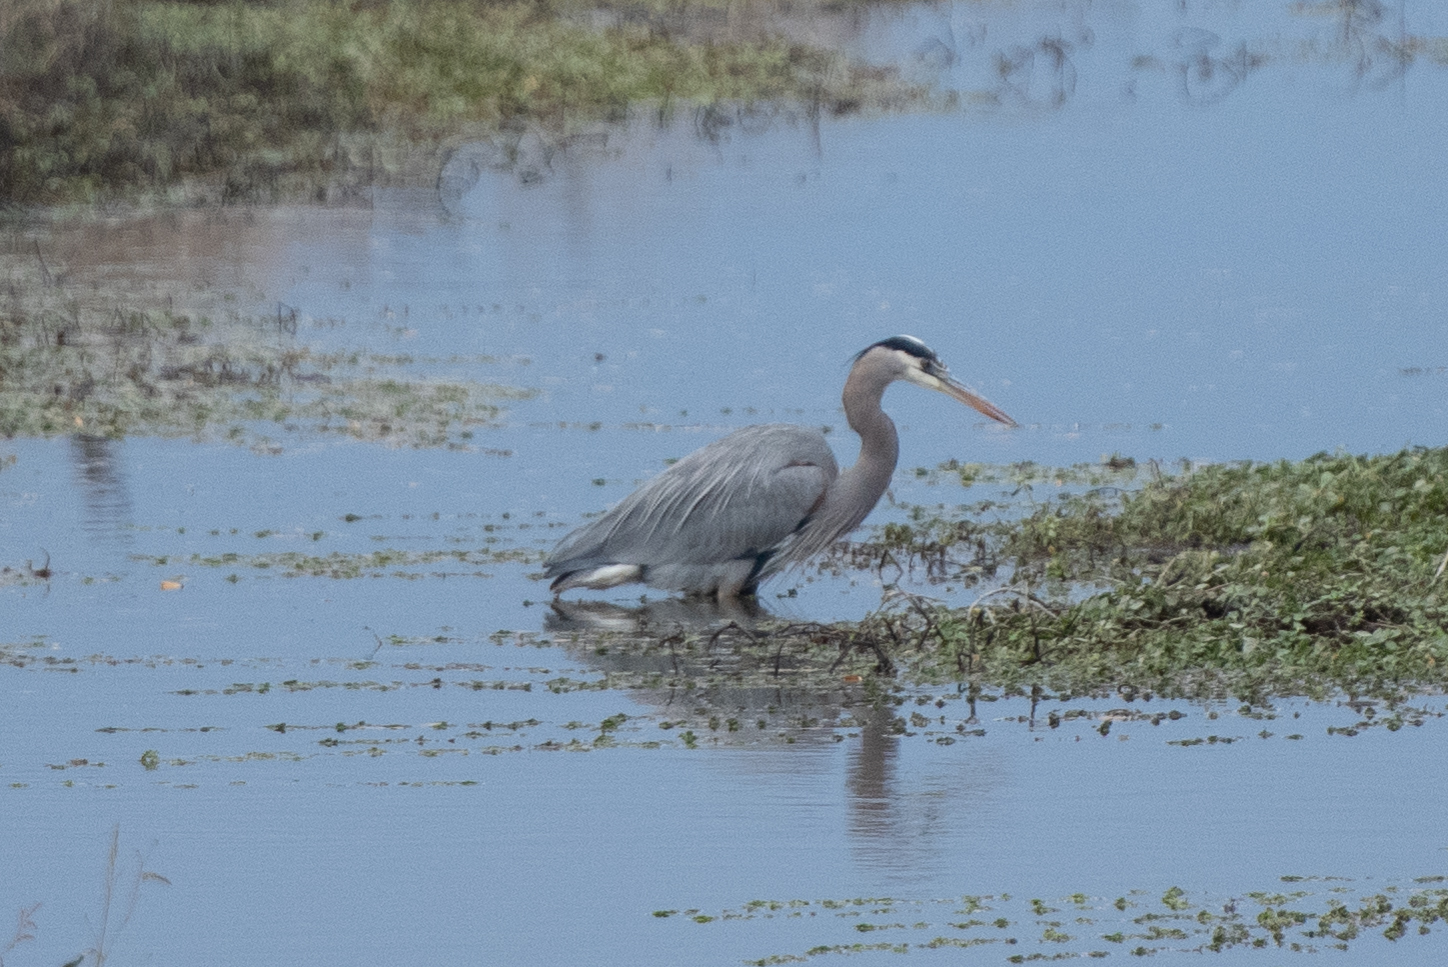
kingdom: Animalia
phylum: Chordata
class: Aves
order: Pelecaniformes
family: Ardeidae
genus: Ardea
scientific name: Ardea herodias
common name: Great blue heron
